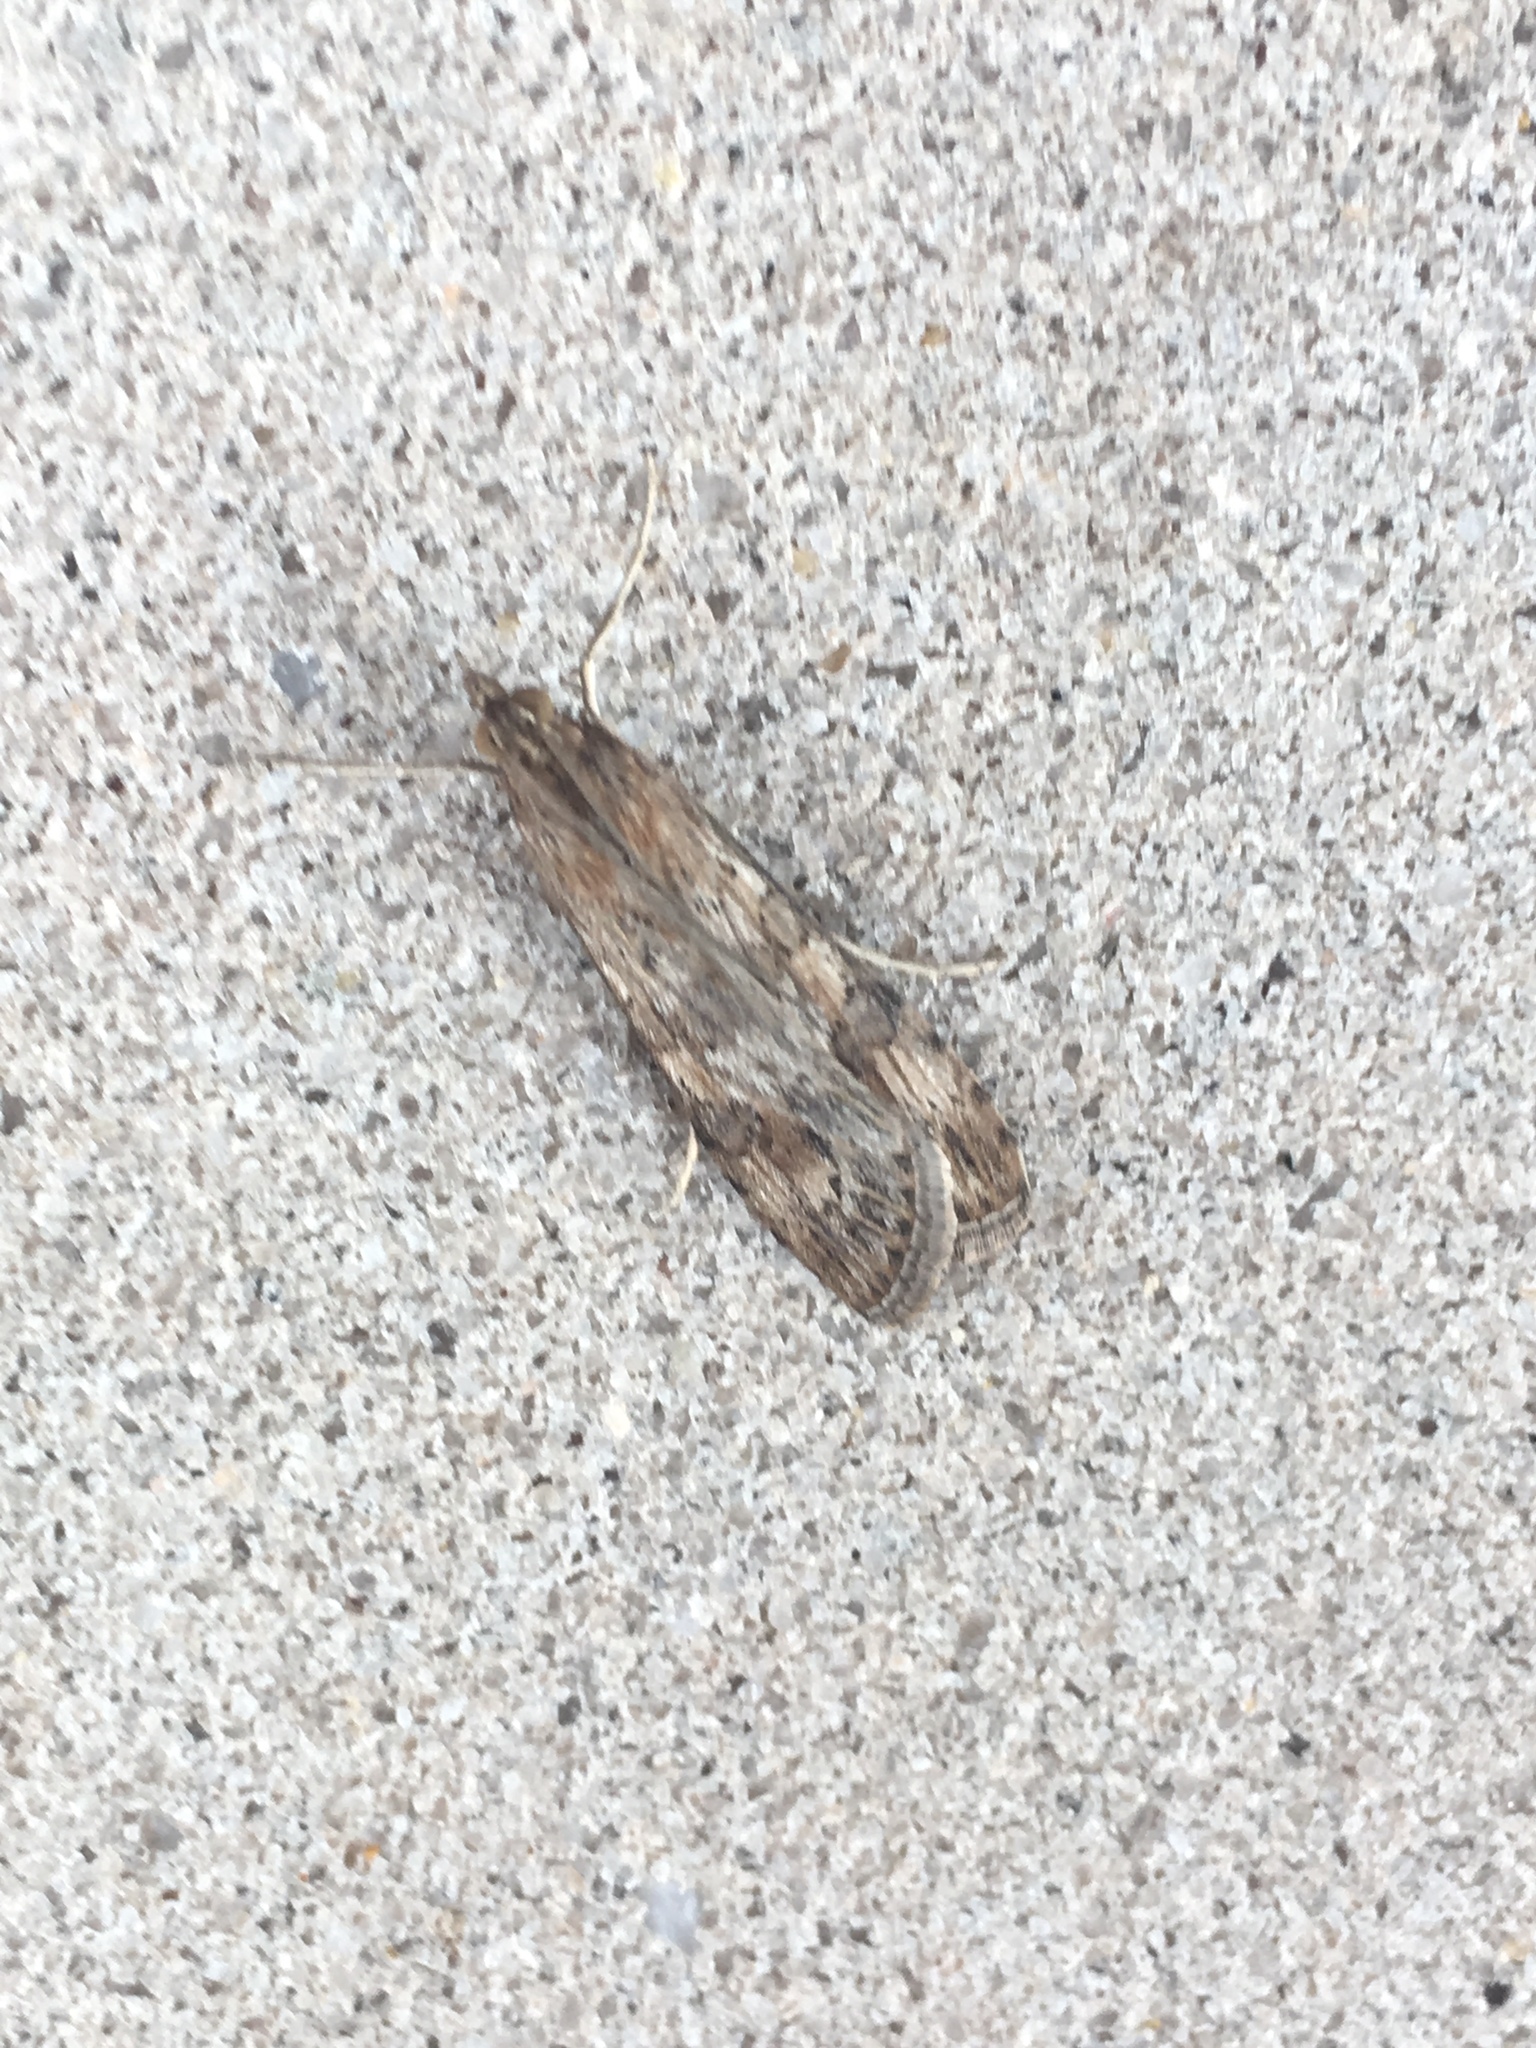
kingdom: Animalia
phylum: Arthropoda
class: Insecta
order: Lepidoptera
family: Crambidae
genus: Nomophila
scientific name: Nomophila nearctica
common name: American rush veneer
